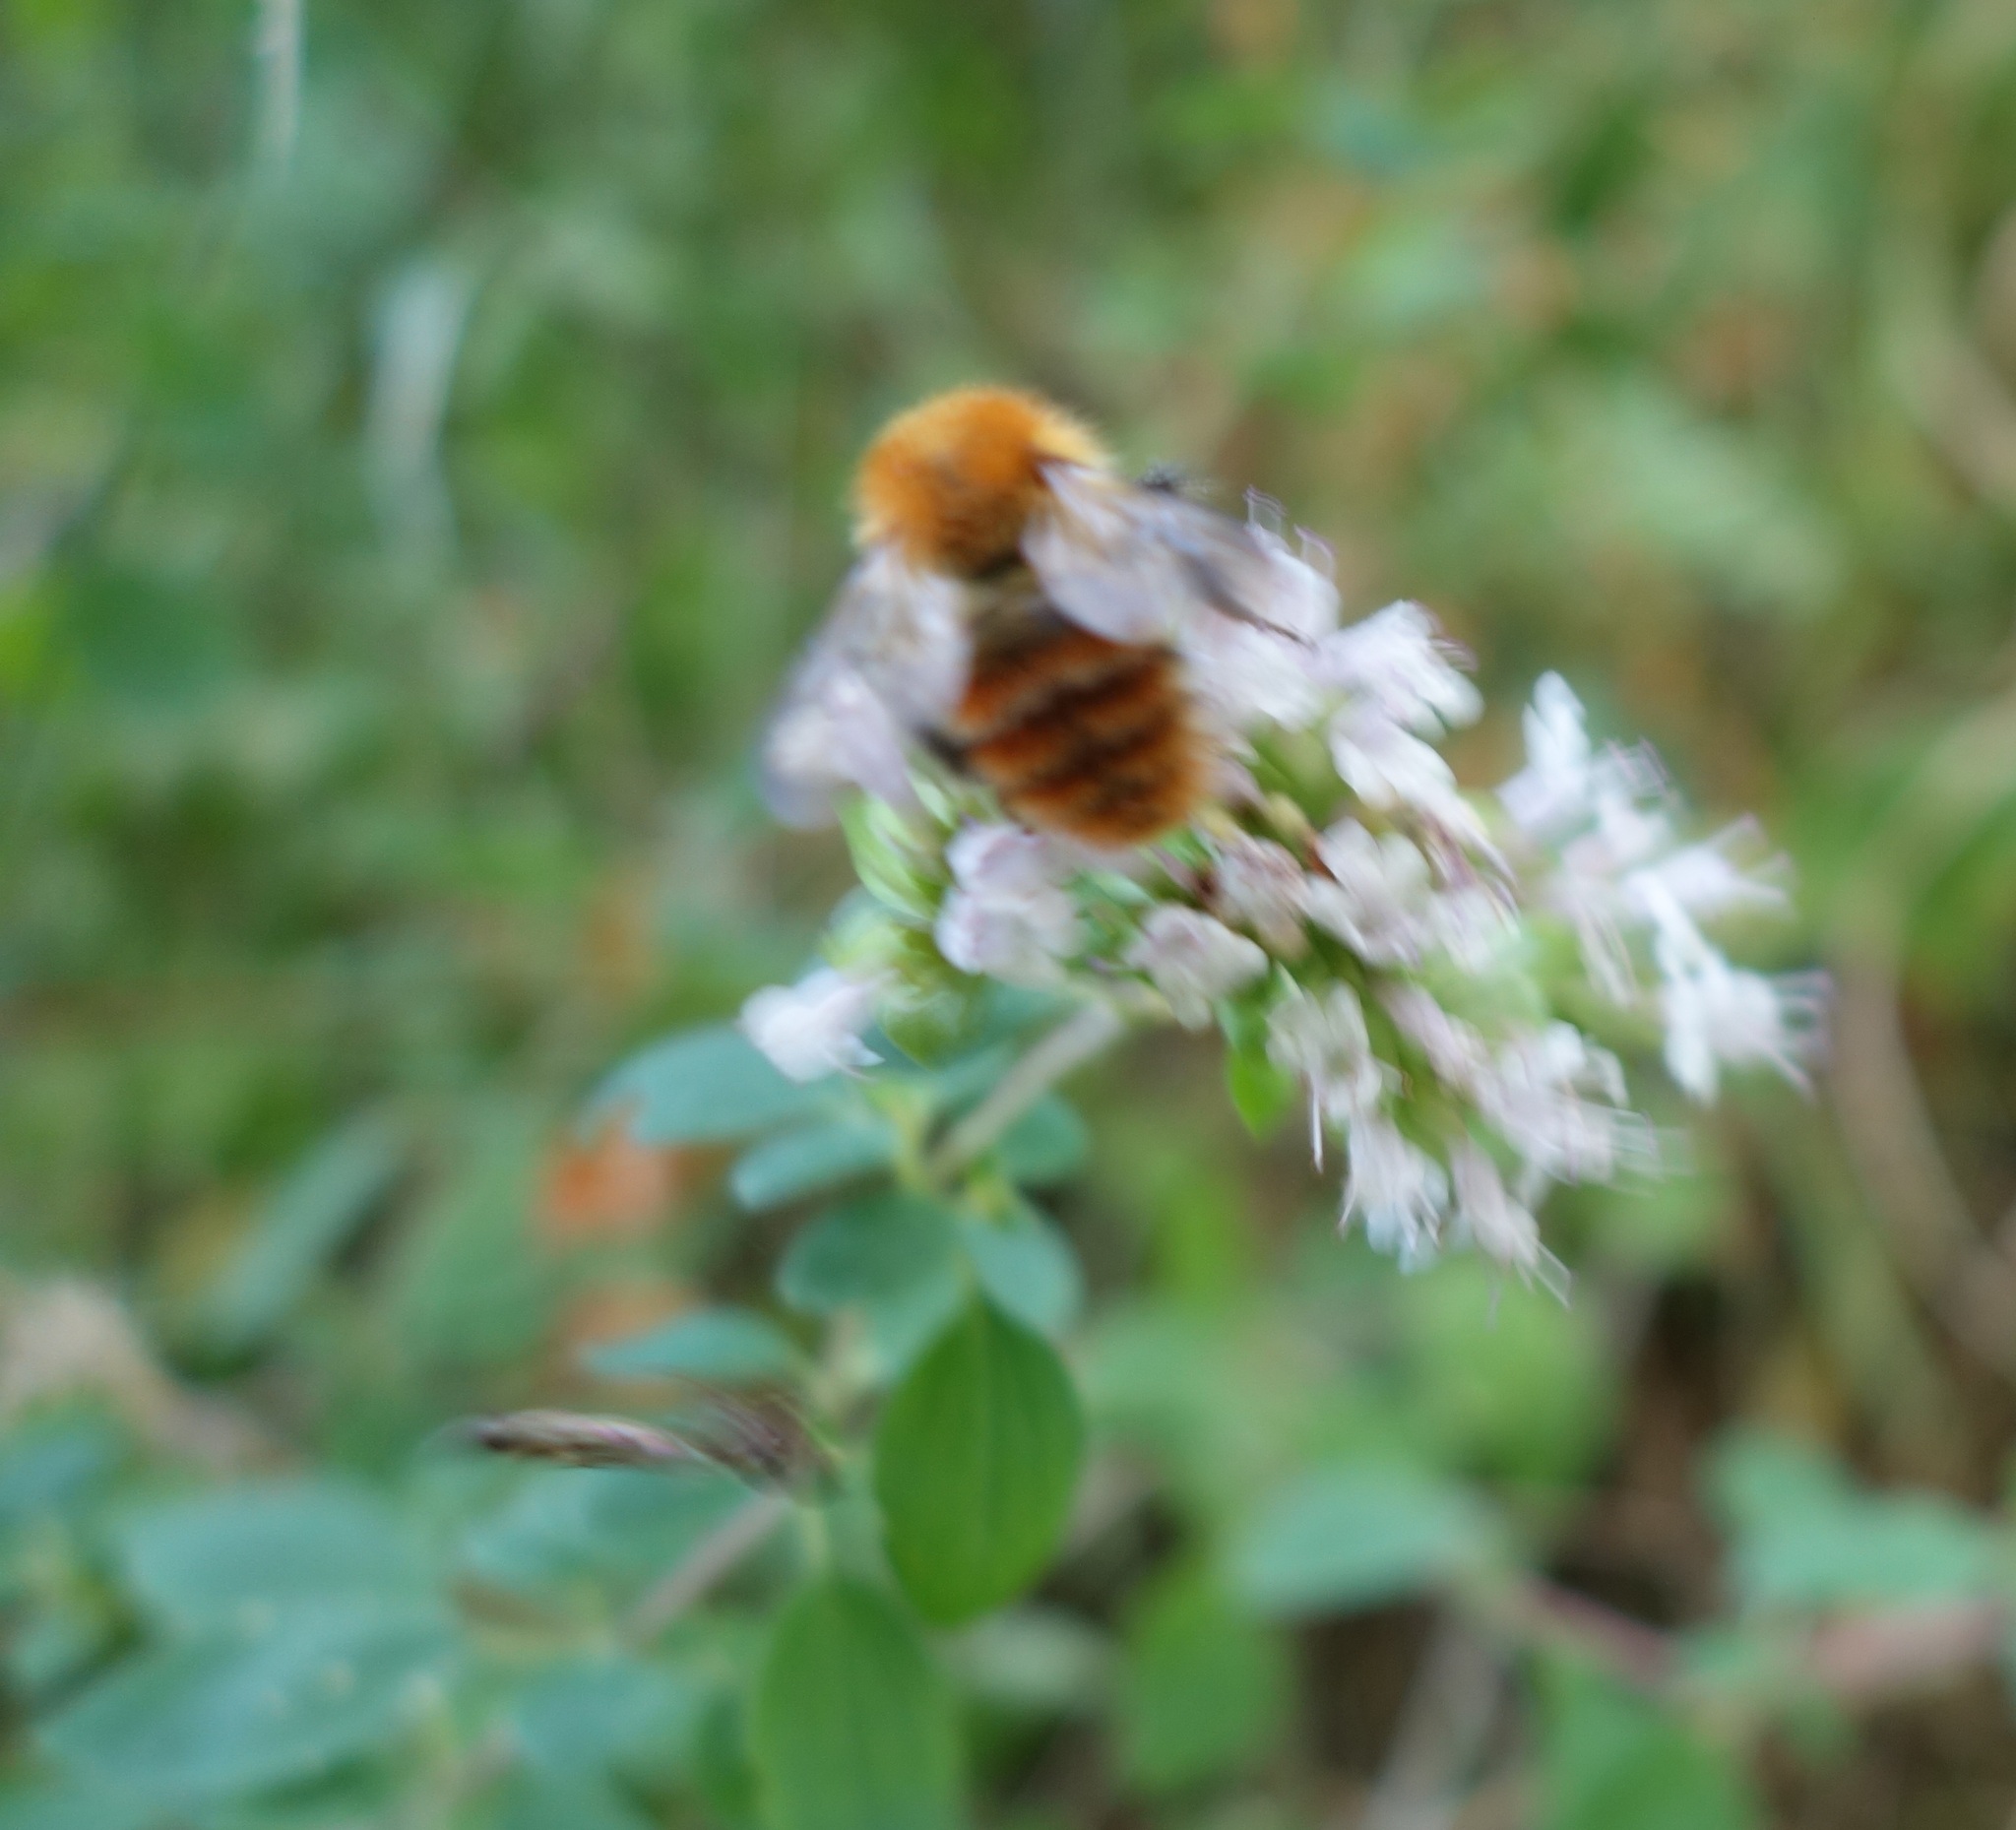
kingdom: Animalia
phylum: Arthropoda
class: Insecta
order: Hymenoptera
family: Apidae
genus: Bombus
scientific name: Bombus pascuorum
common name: Common carder bee
